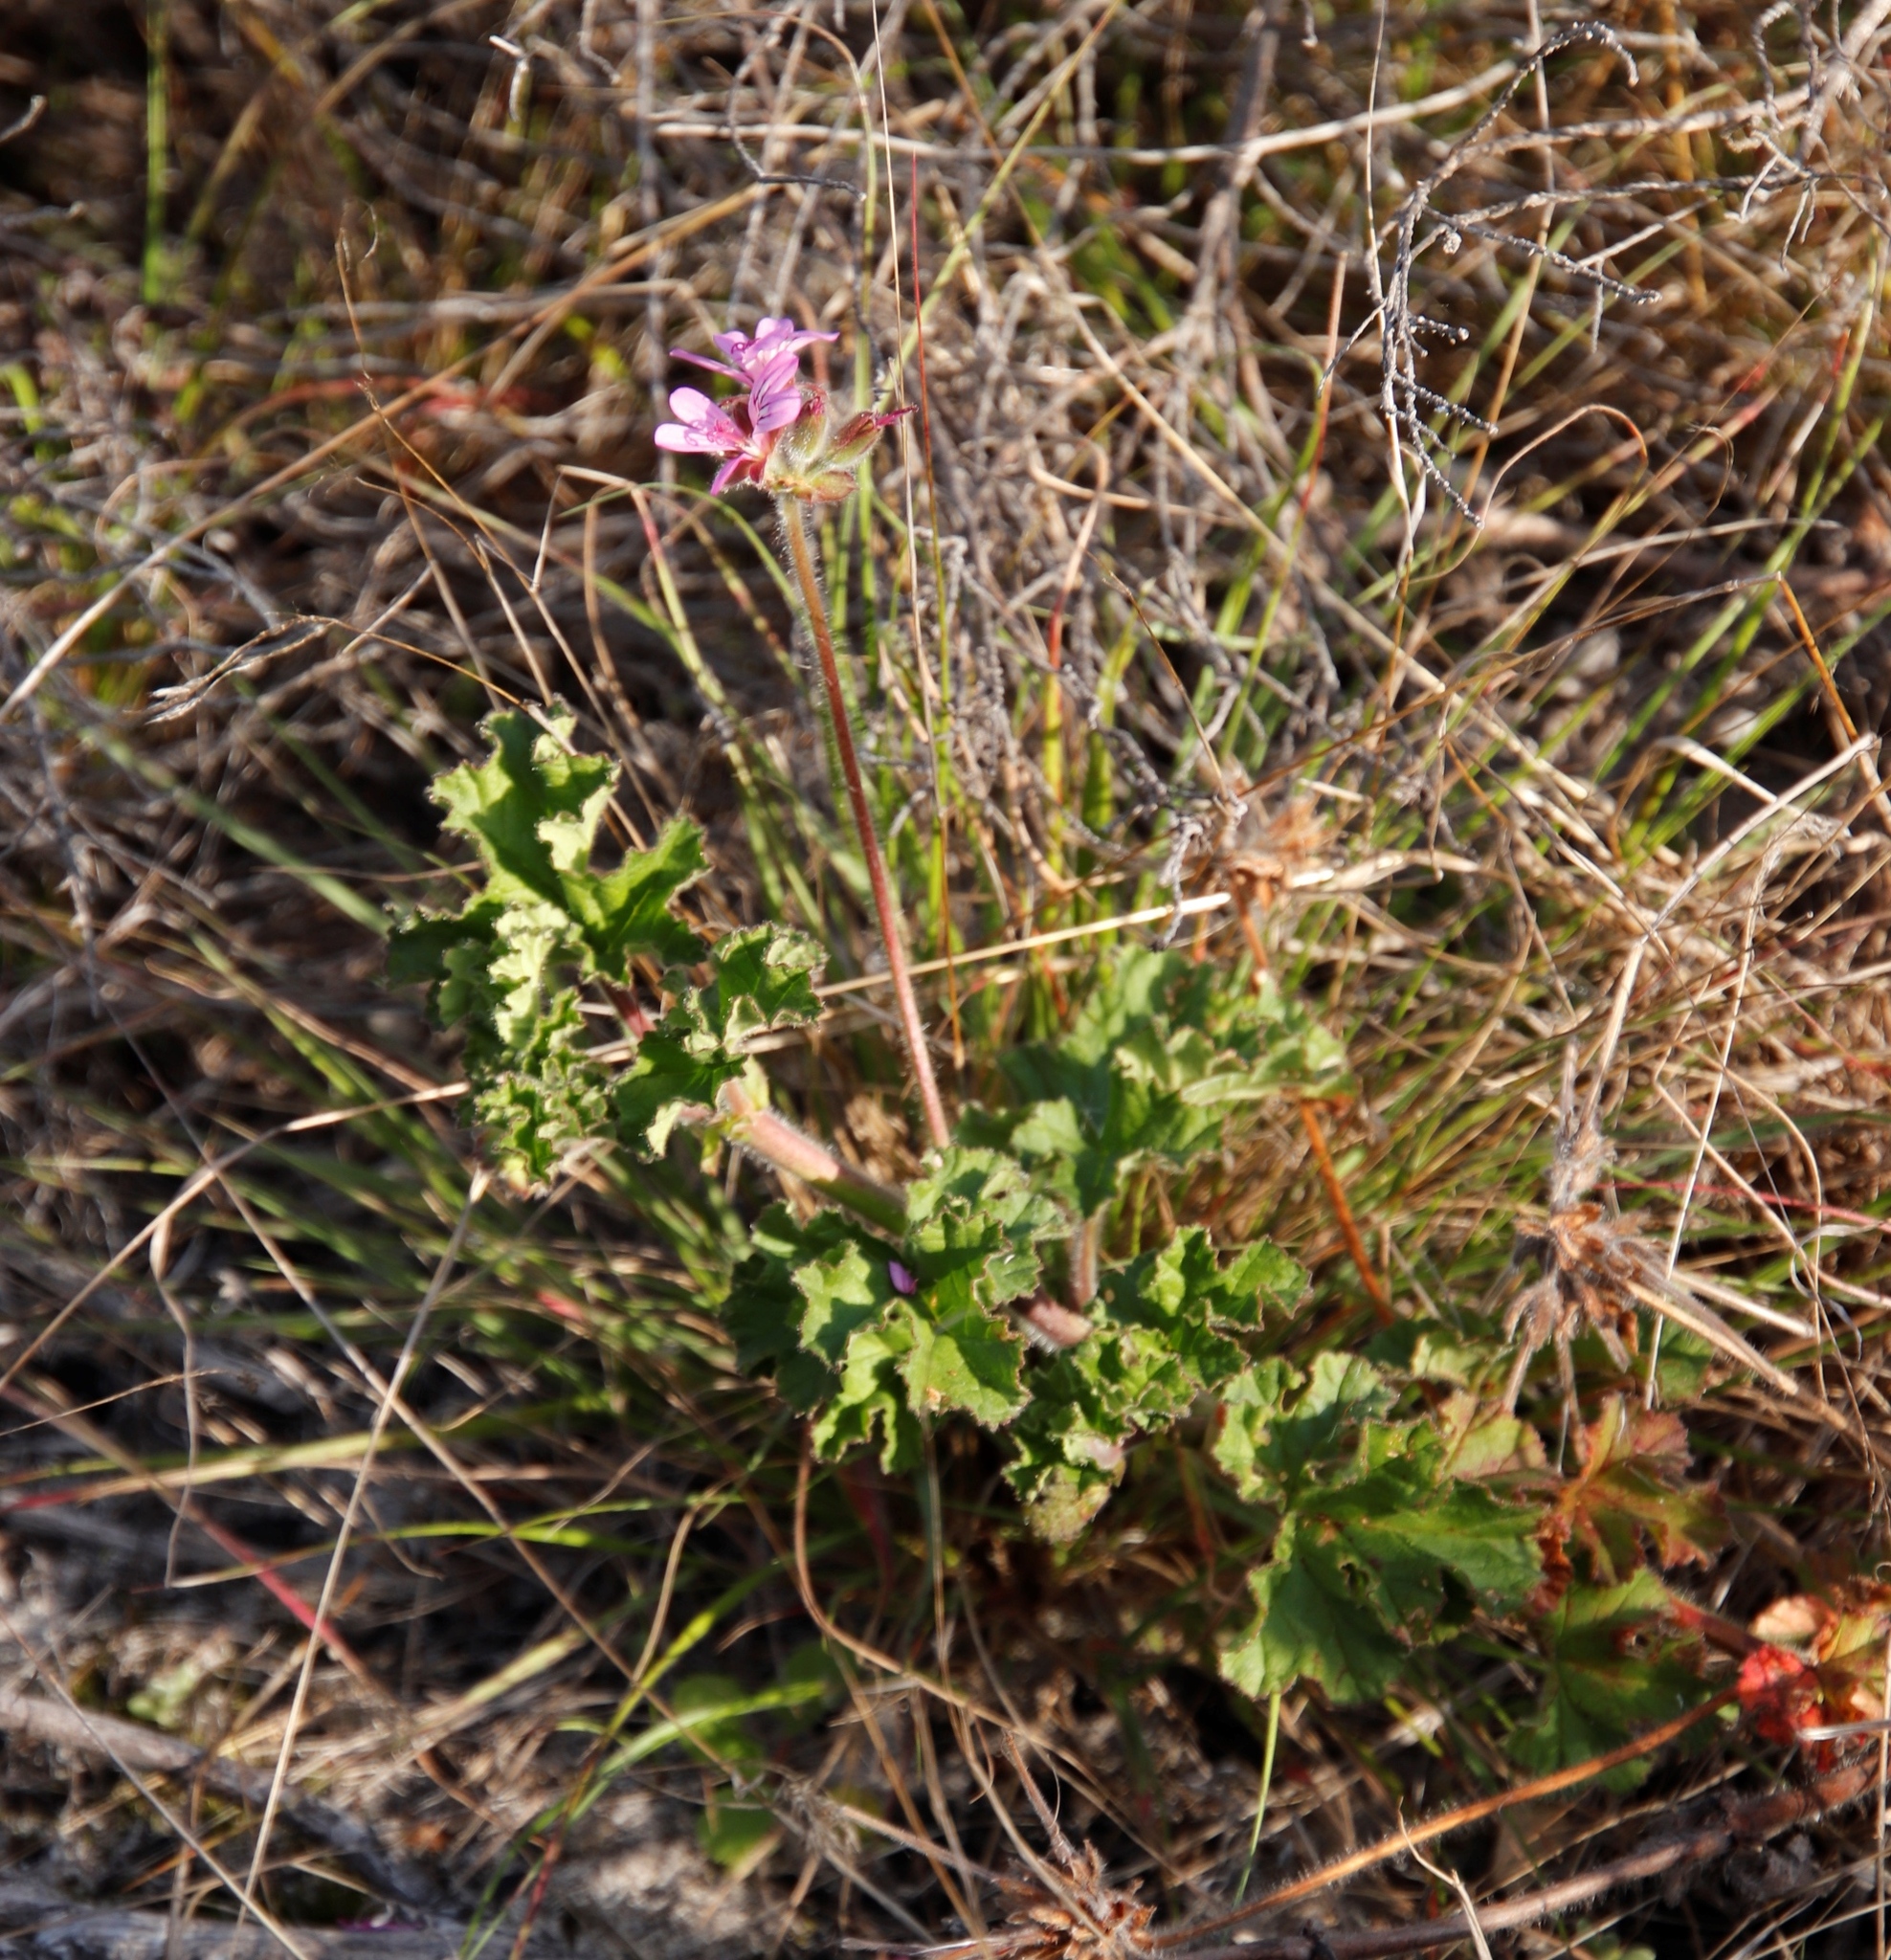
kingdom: Plantae
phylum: Tracheophyta
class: Magnoliopsida
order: Geraniales
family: Geraniaceae
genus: Pelargonium
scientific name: Pelargonium capitatum
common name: Rose scented geranium
